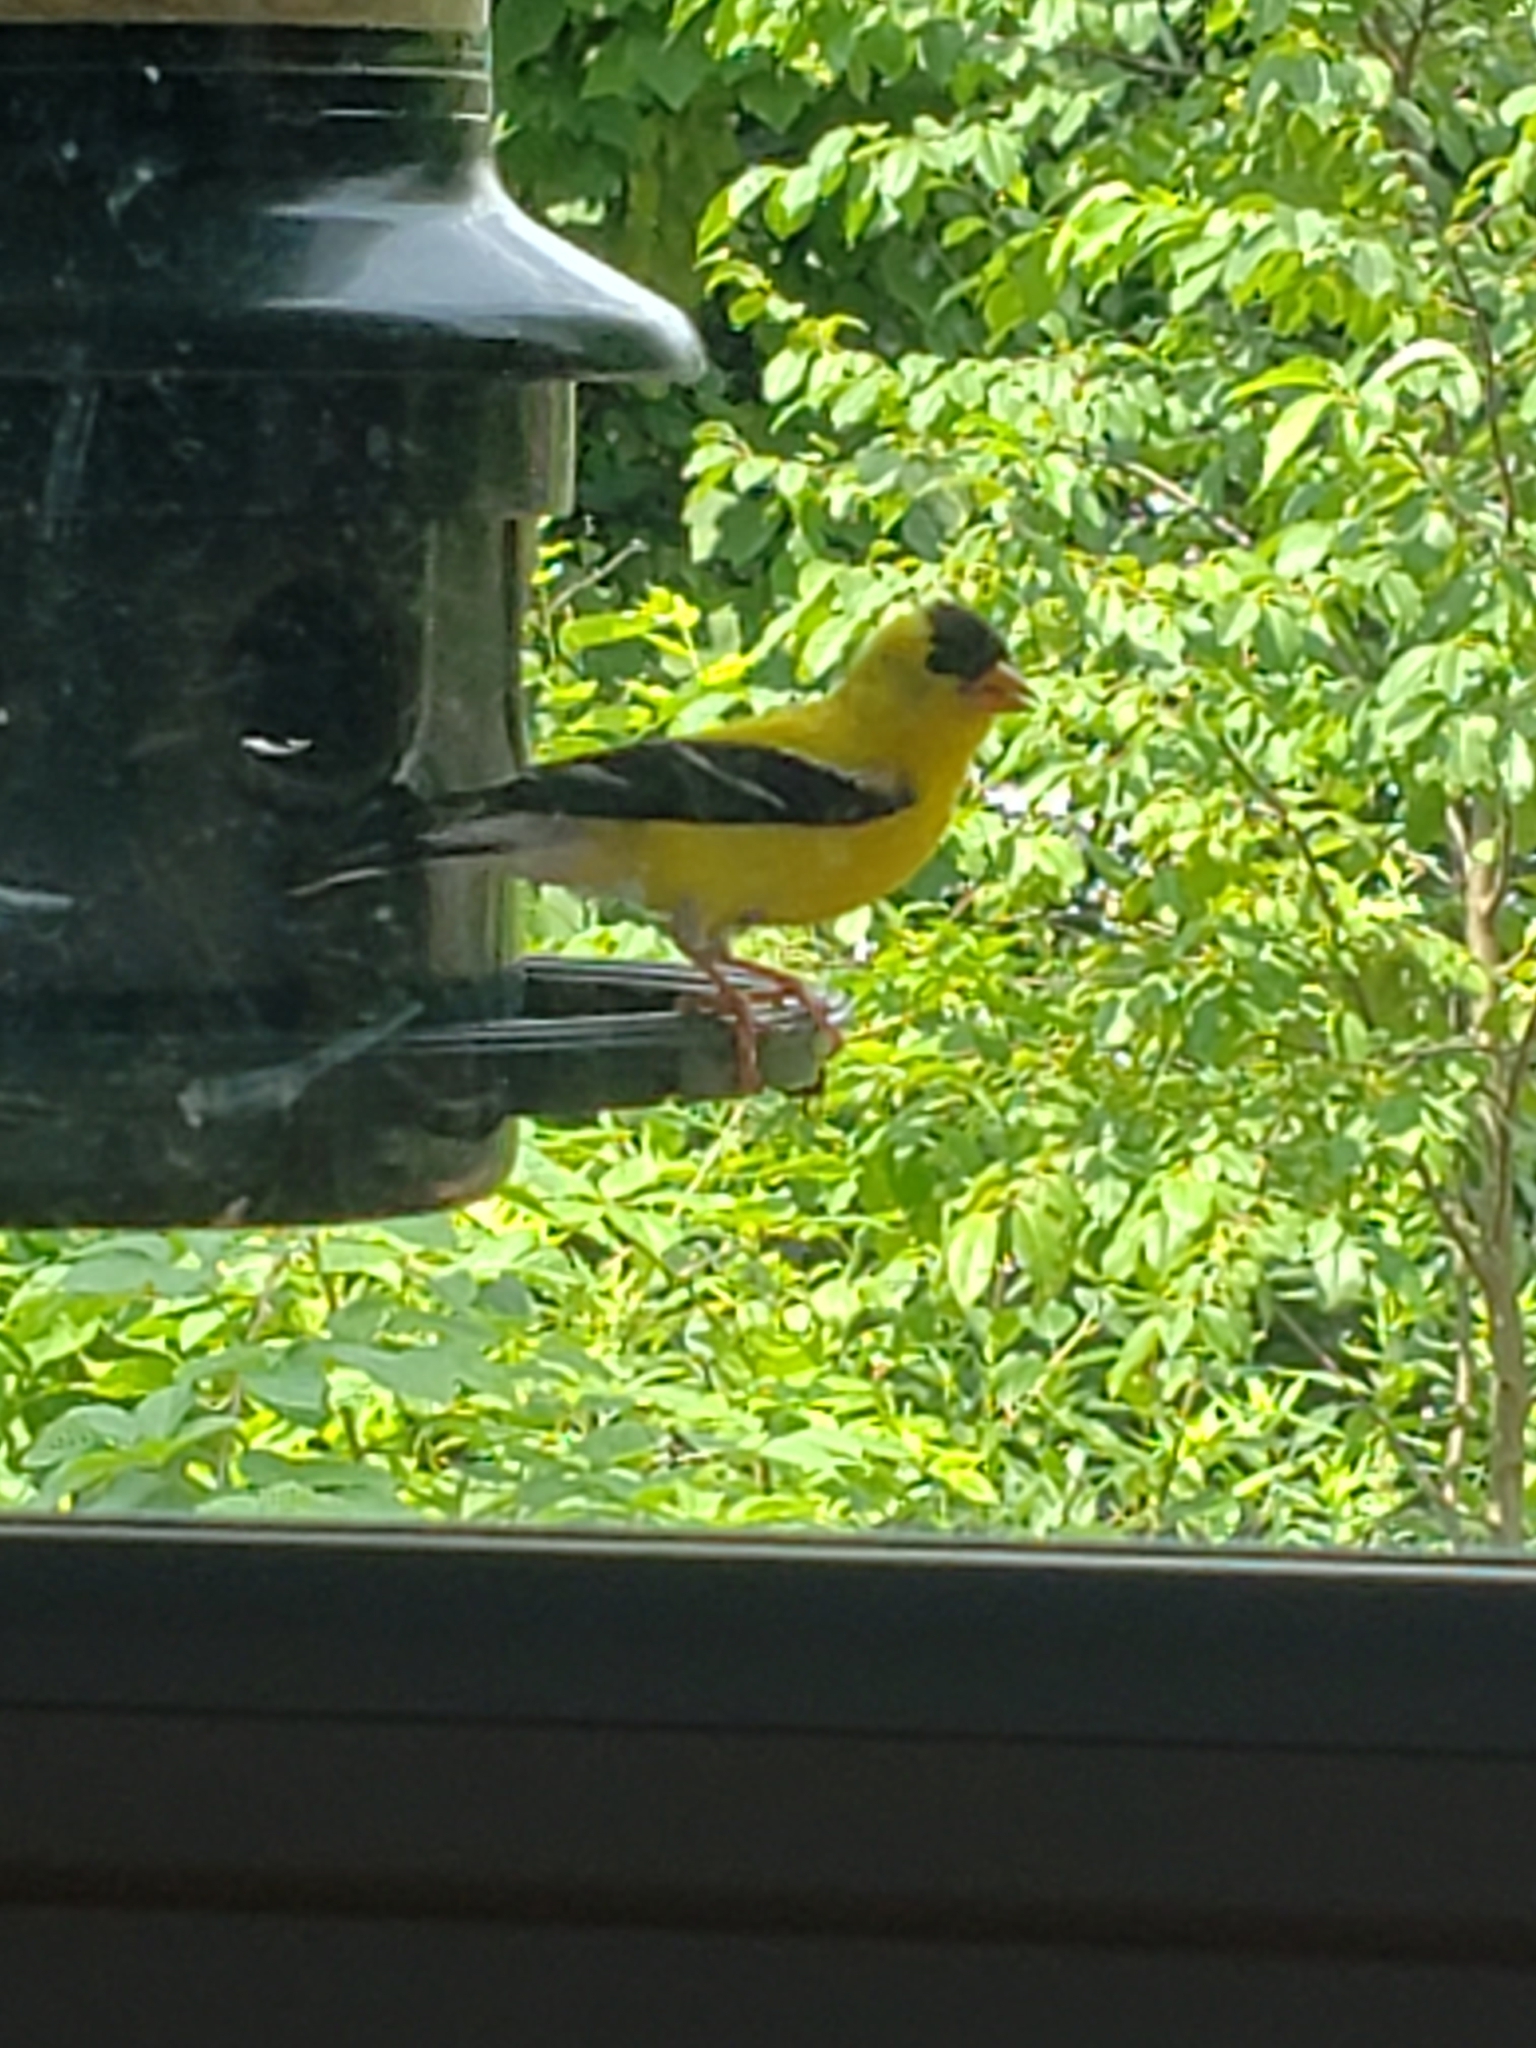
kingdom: Animalia
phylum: Chordata
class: Aves
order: Passeriformes
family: Fringillidae
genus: Spinus
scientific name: Spinus tristis
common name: American goldfinch
